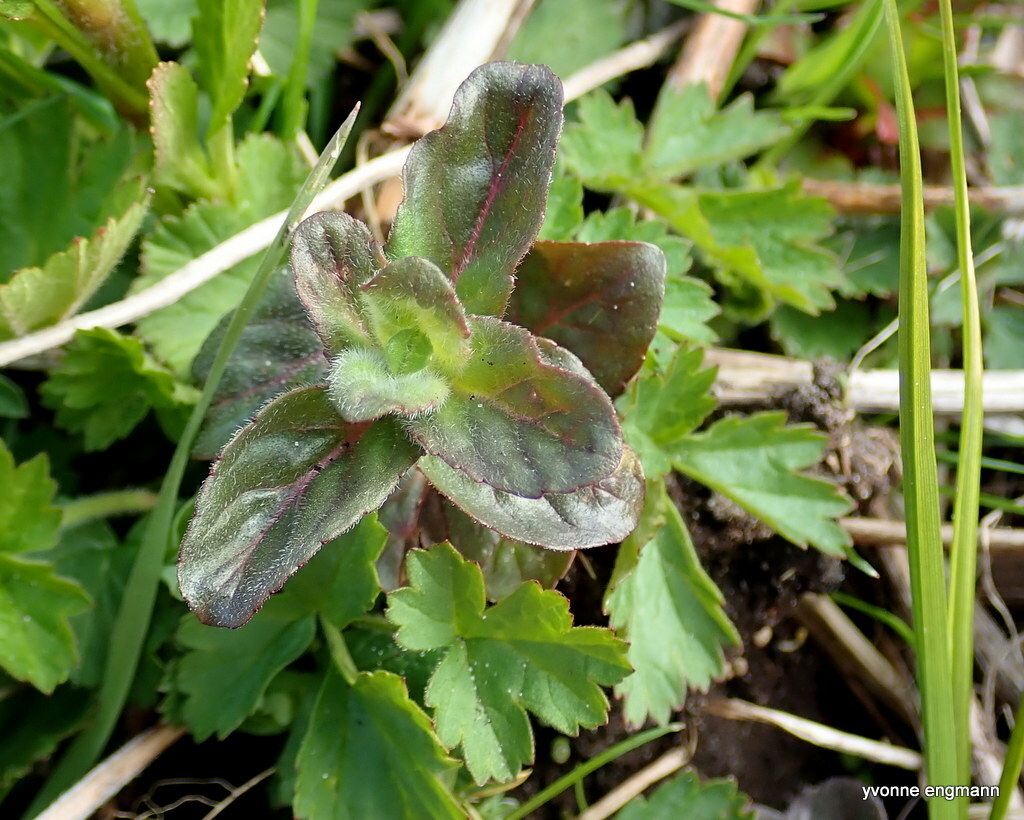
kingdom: Plantae
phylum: Tracheophyta
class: Magnoliopsida
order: Lamiales
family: Lamiaceae
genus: Mentha
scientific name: Mentha aquatica
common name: Water mint
